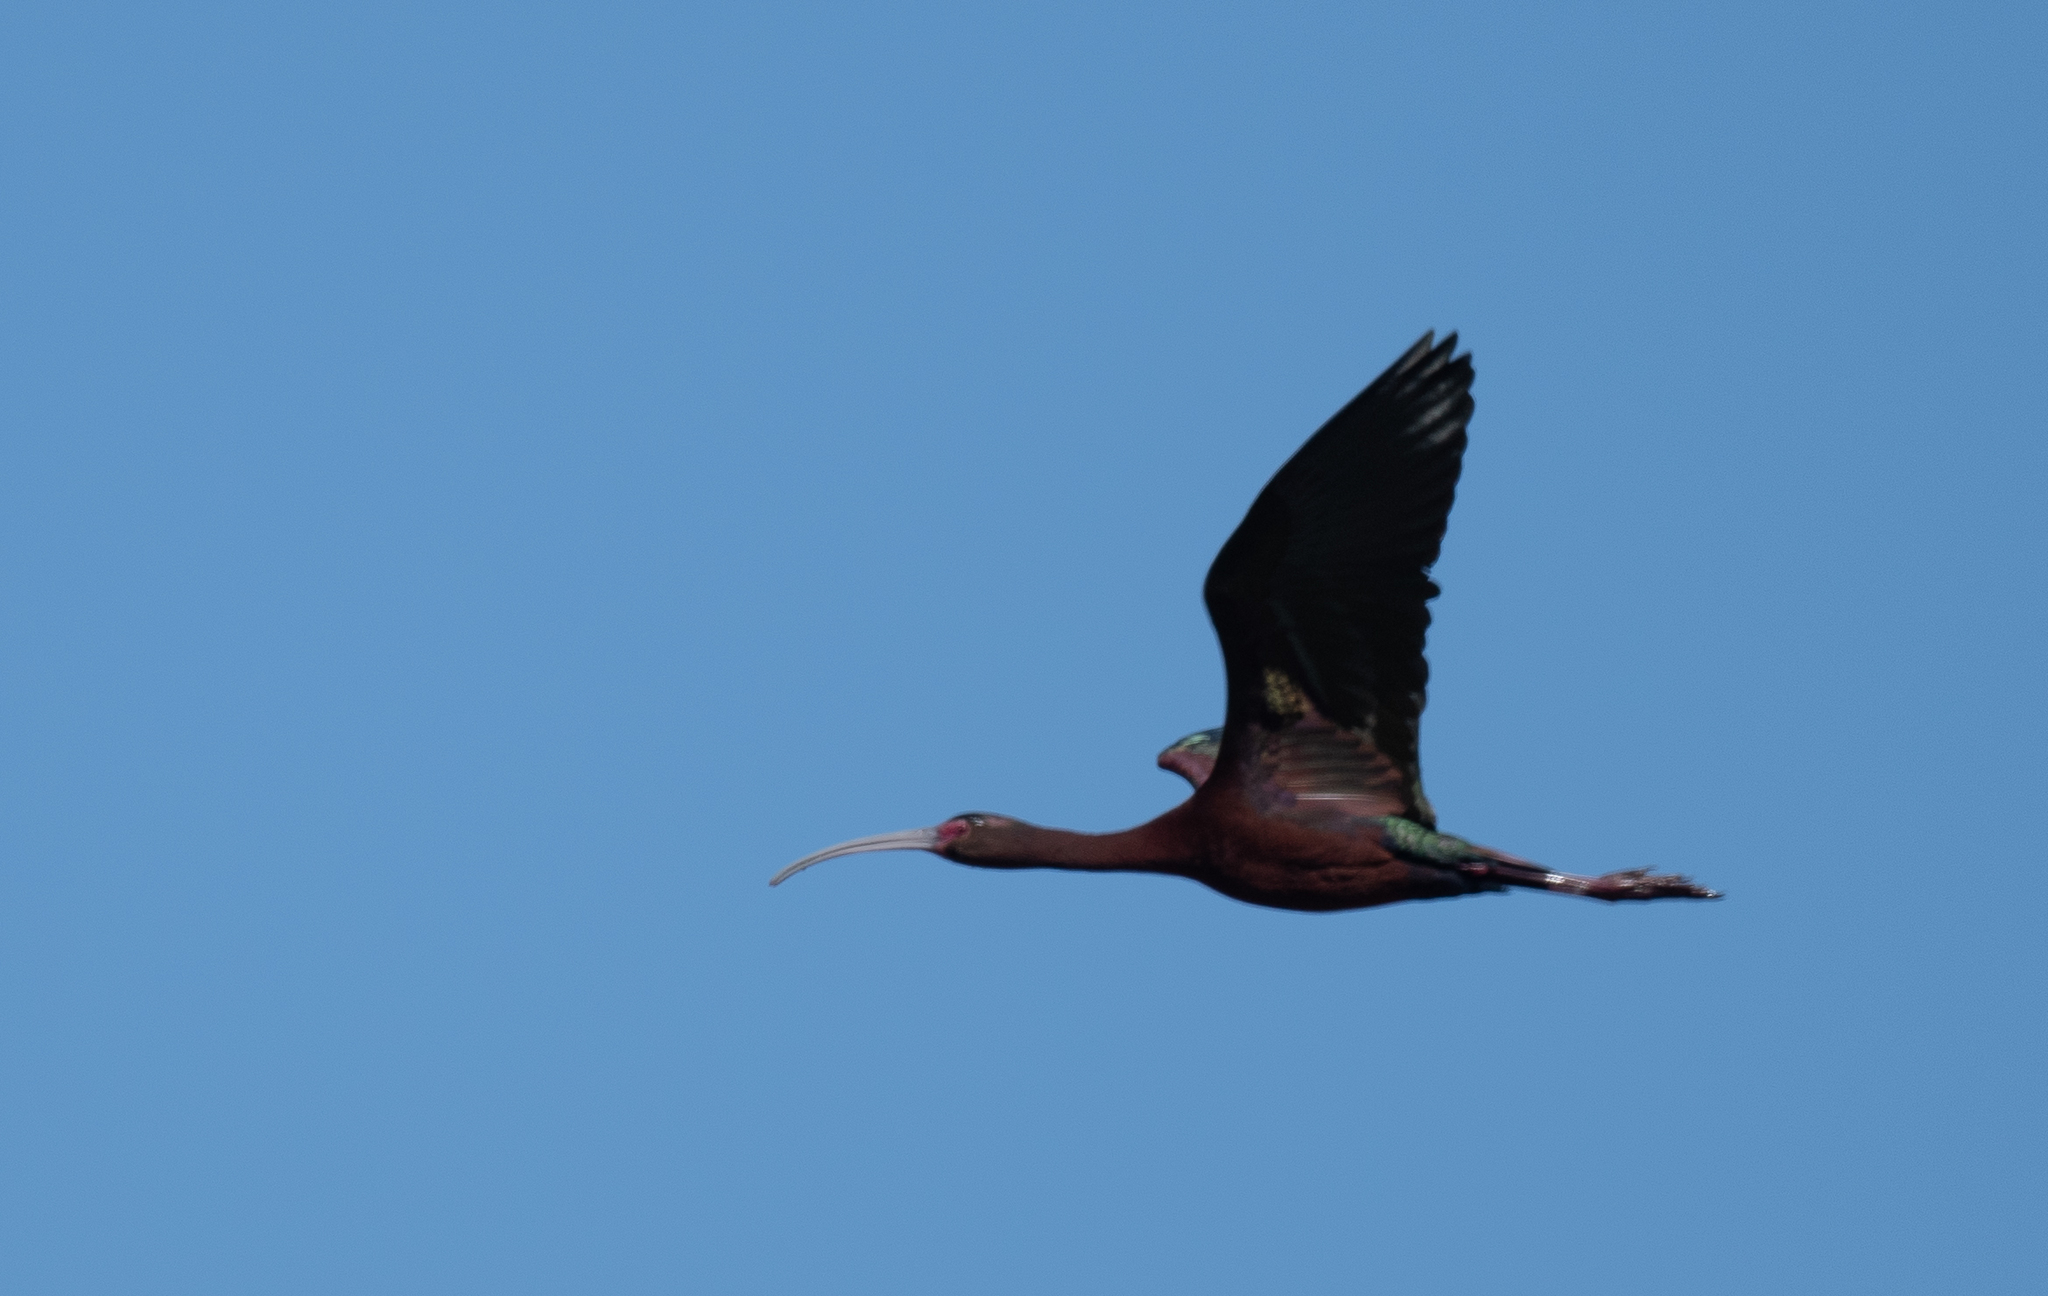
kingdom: Animalia
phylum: Chordata
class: Aves
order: Pelecaniformes
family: Threskiornithidae
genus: Plegadis
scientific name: Plegadis chihi
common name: White-faced ibis
